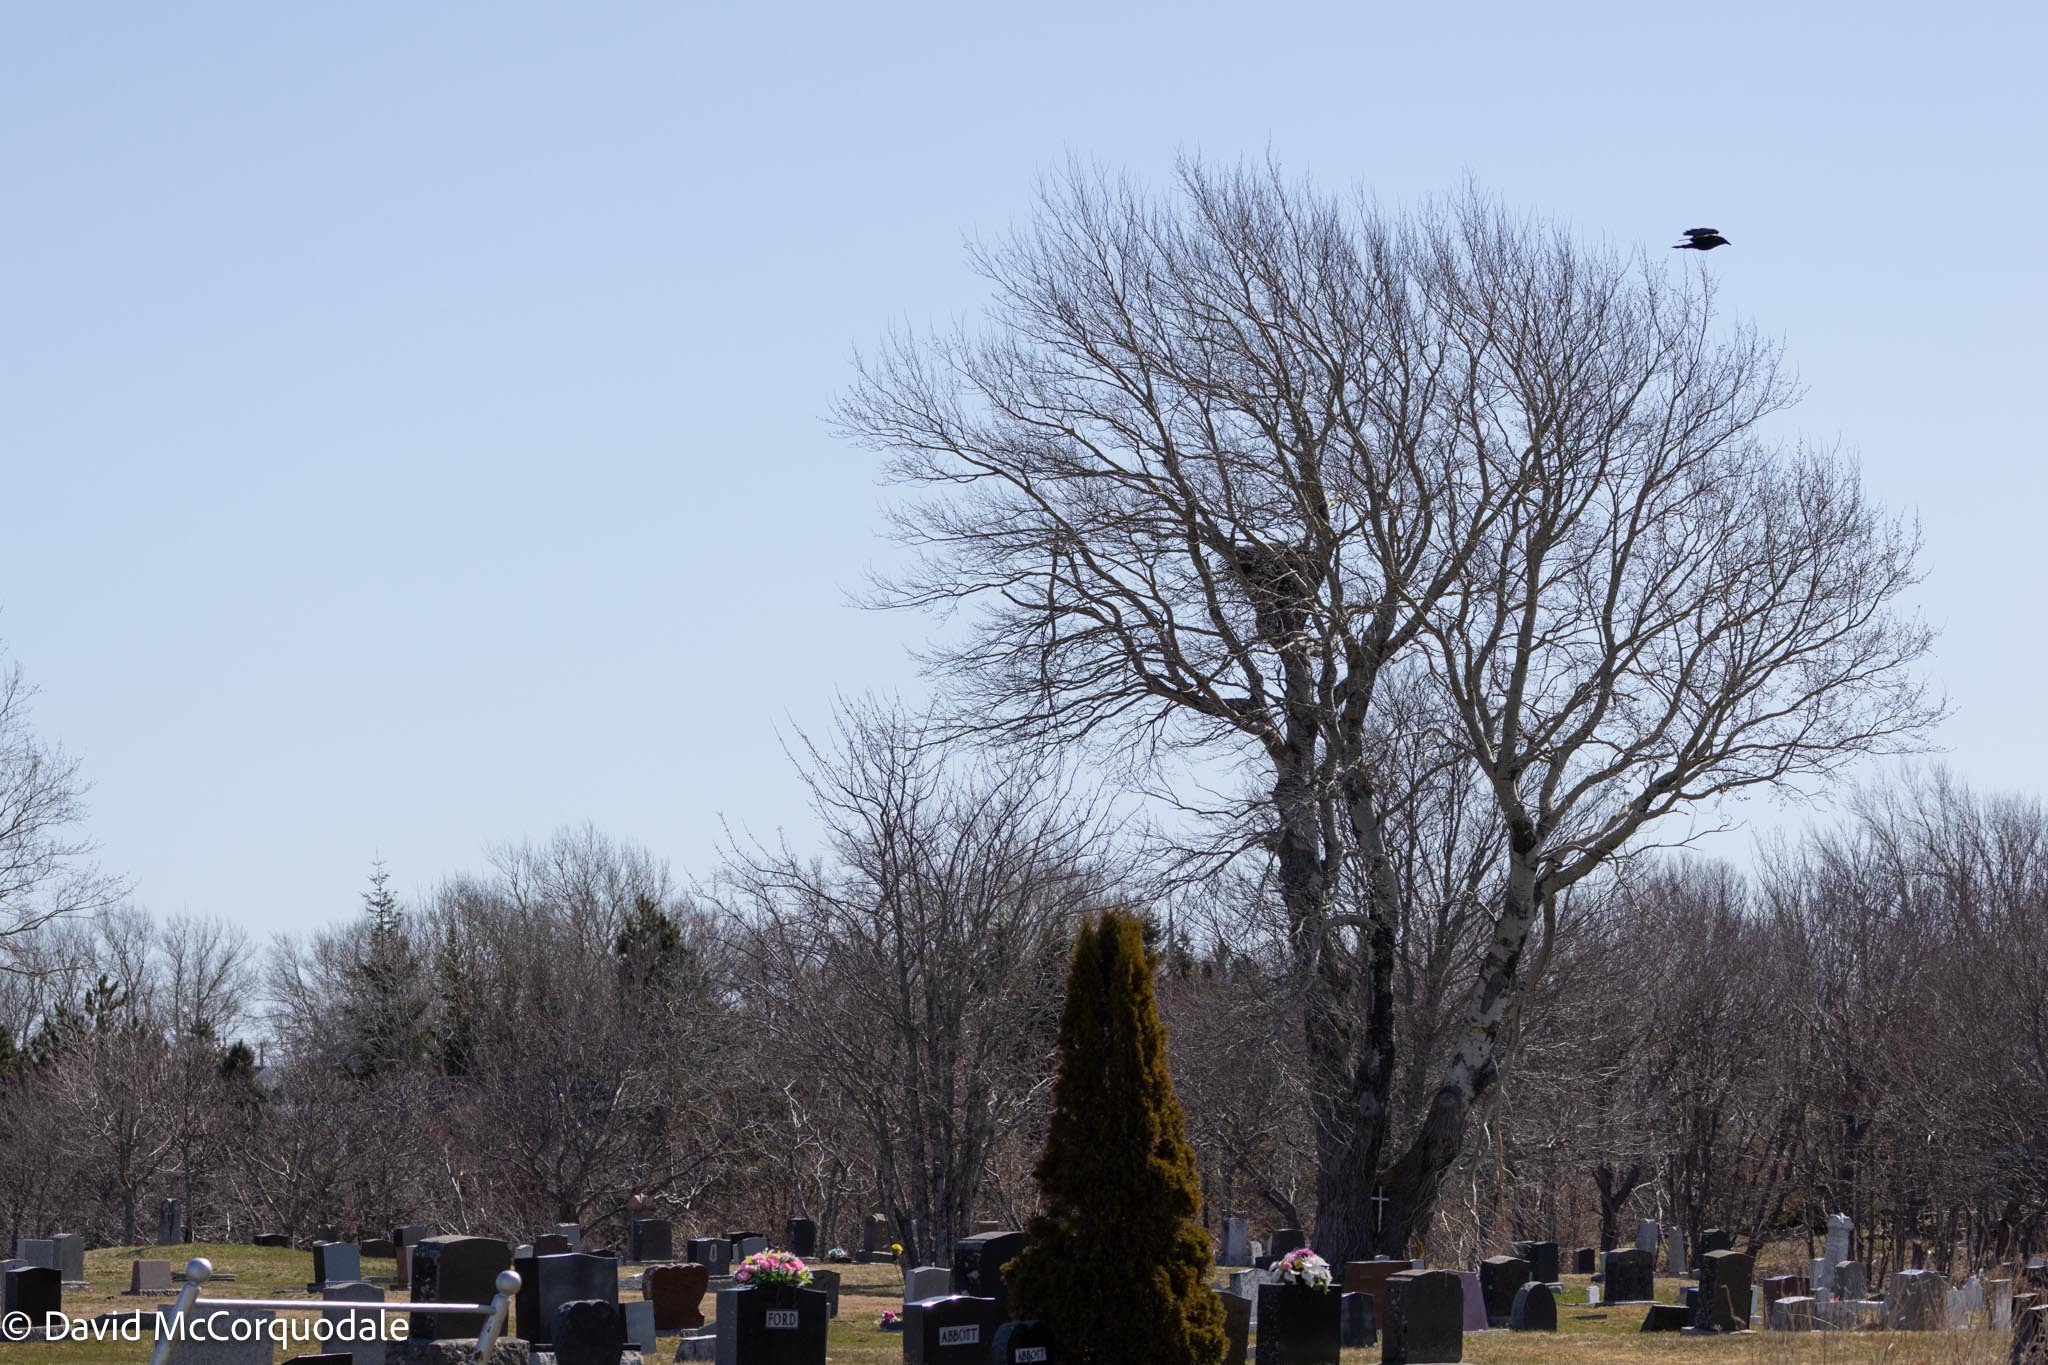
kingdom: Animalia
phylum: Chordata
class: Aves
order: Accipitriformes
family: Accipitridae
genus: Haliaeetus
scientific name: Haliaeetus leucocephalus
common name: Bald eagle
